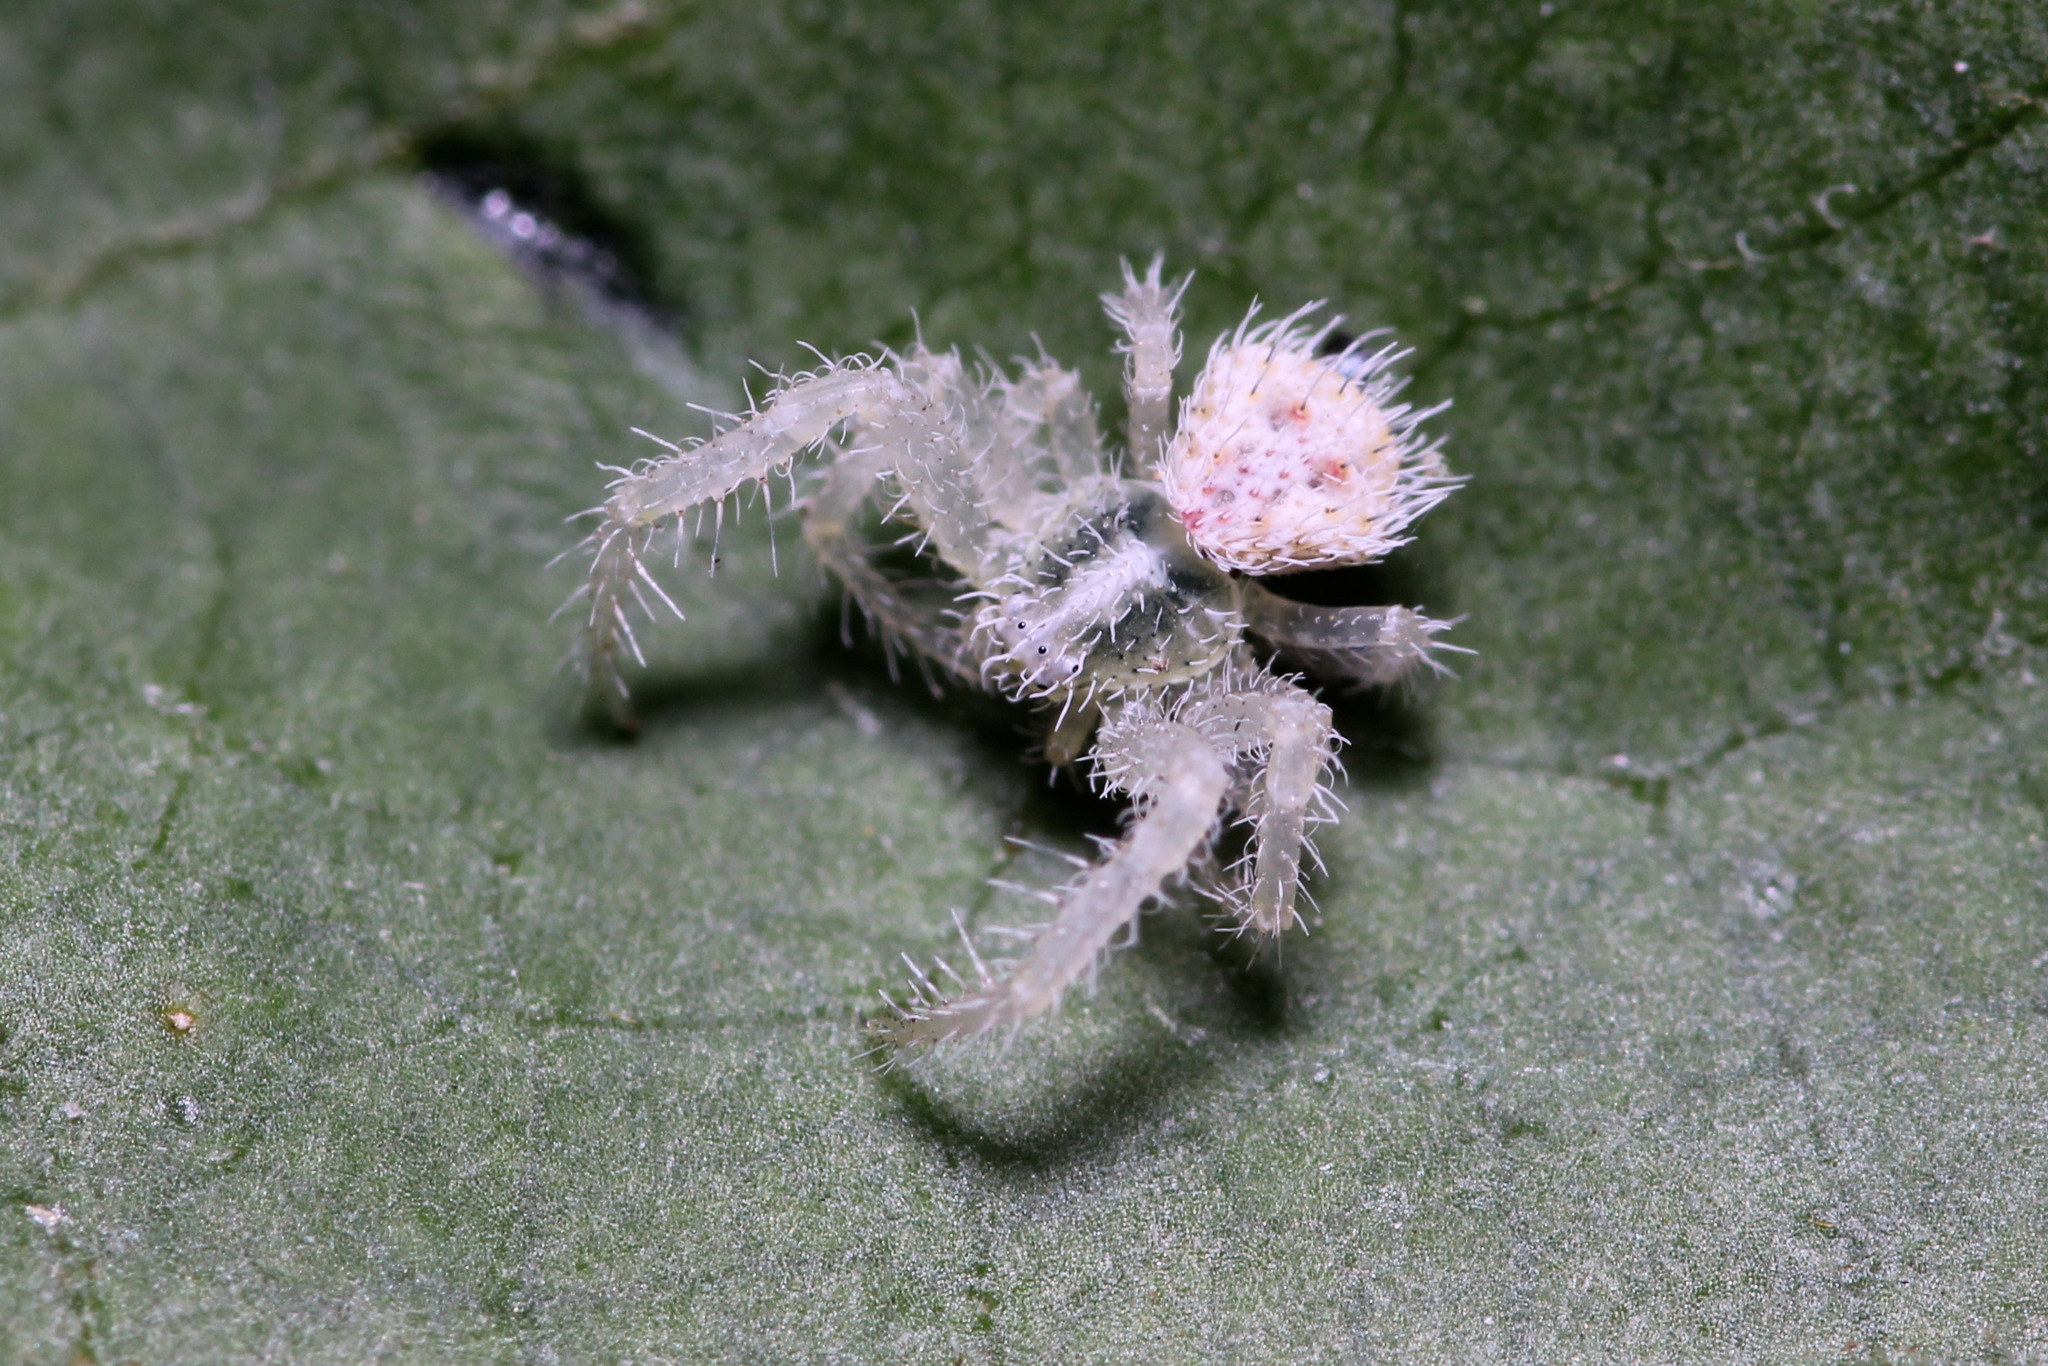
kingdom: Animalia
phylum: Arthropoda
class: Arachnida
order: Araneae
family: Thomisidae
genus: Heriaeus
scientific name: Heriaeus graminicola
